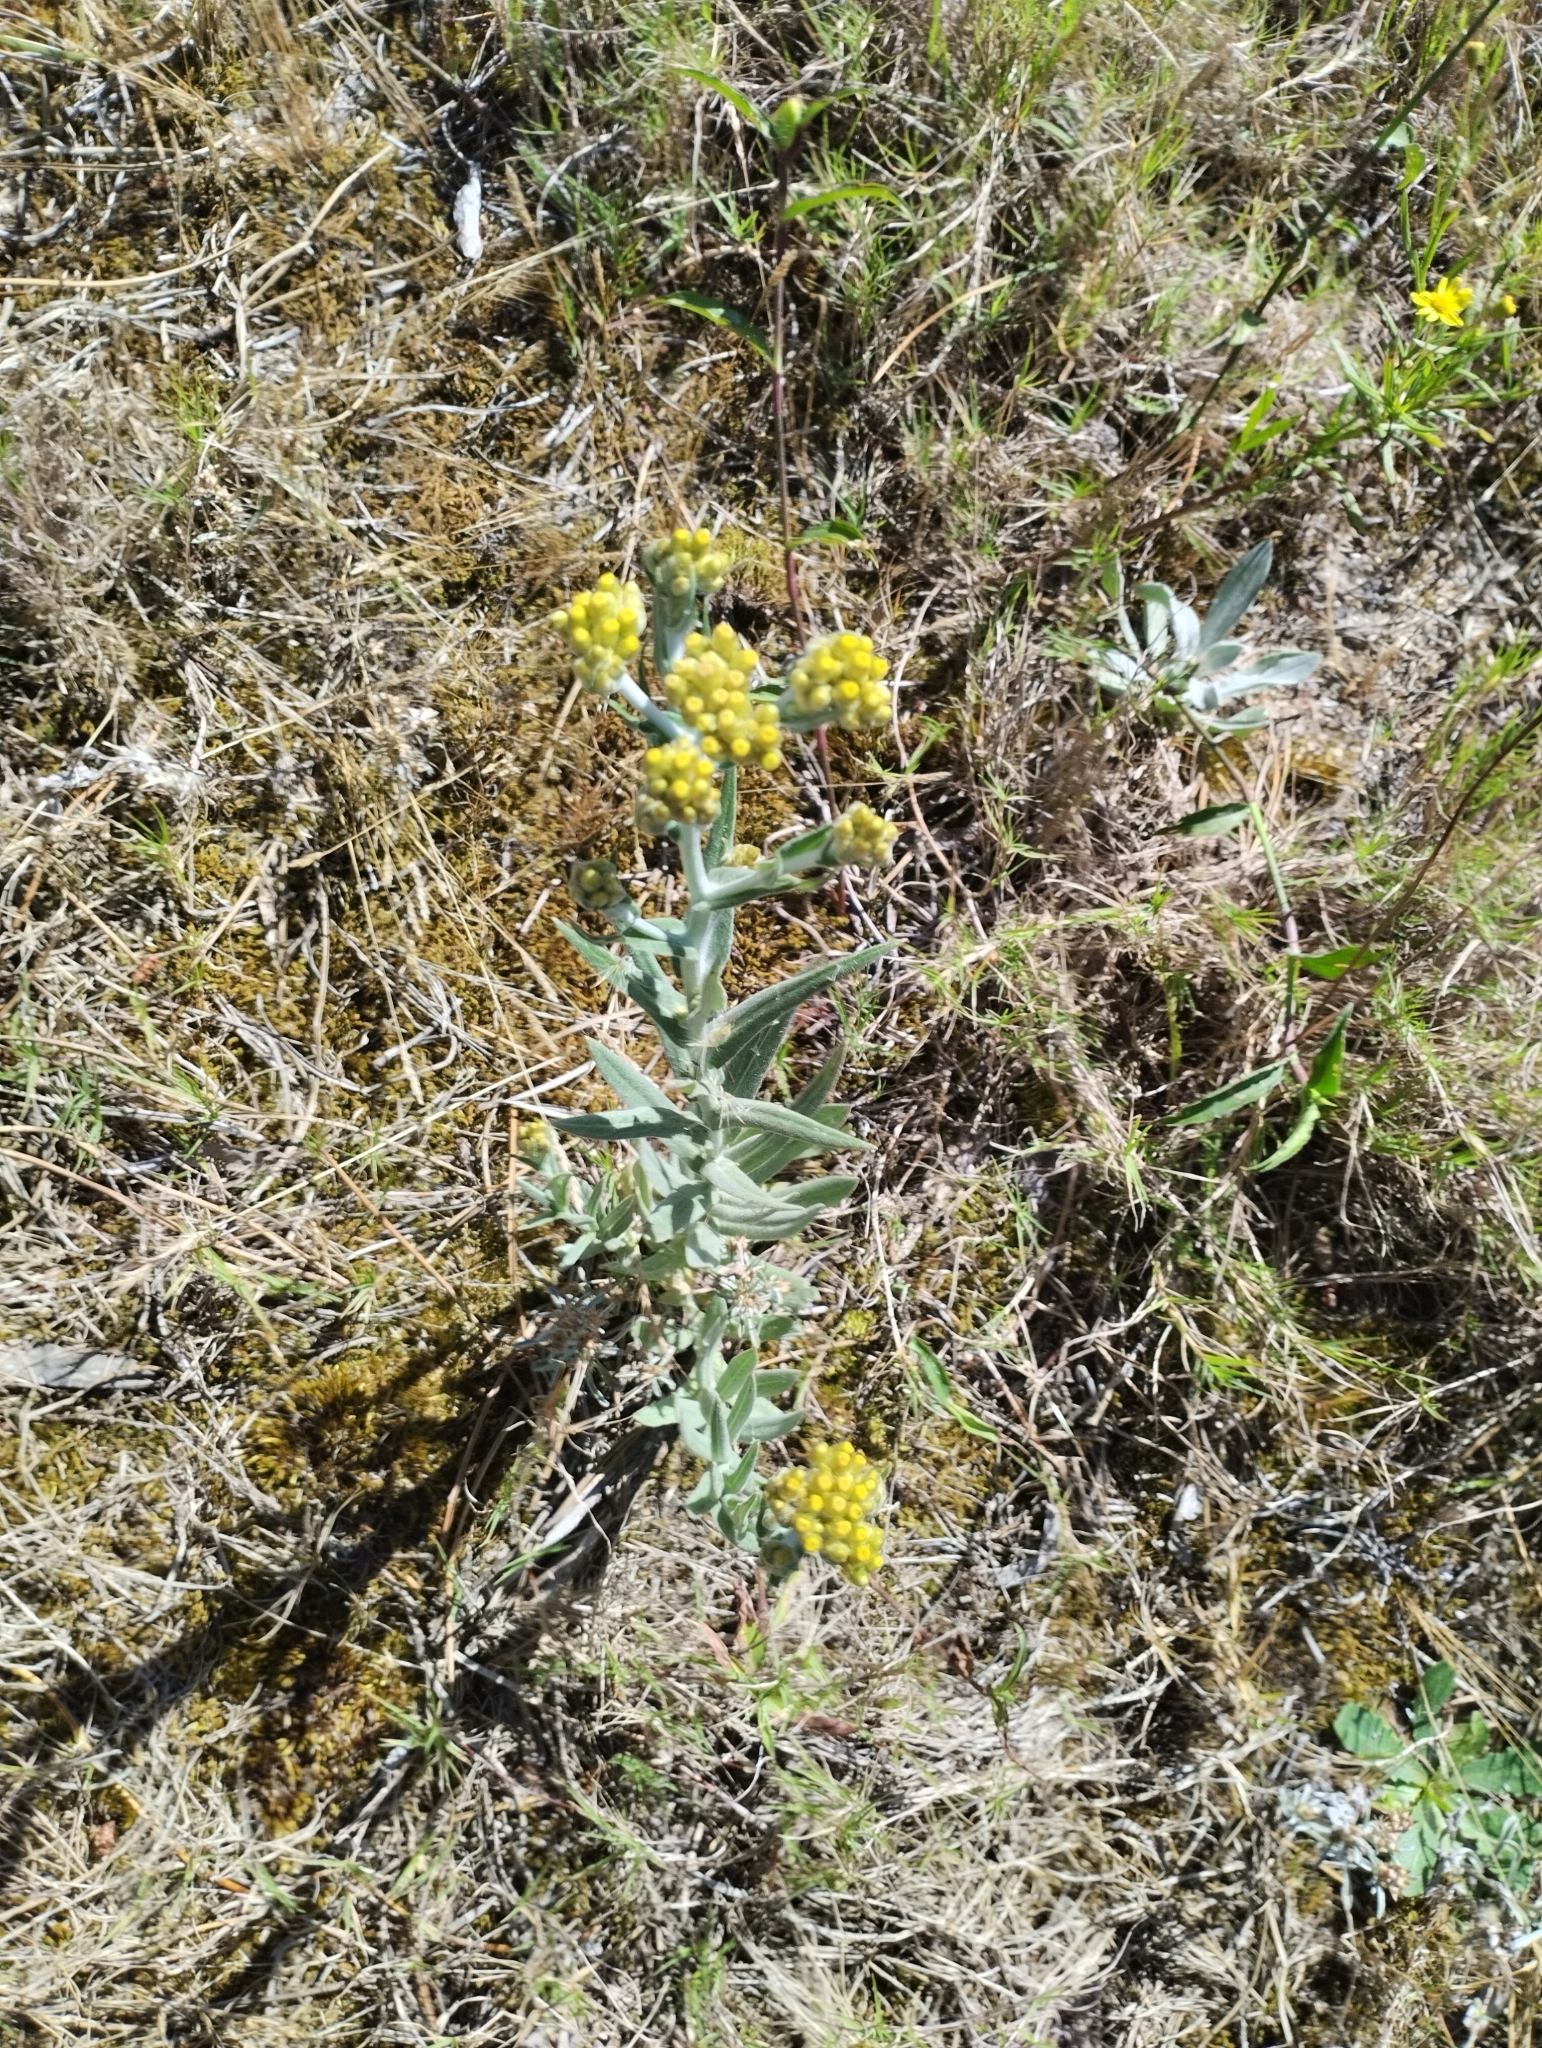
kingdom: Plantae
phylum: Tracheophyta
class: Magnoliopsida
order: Asterales
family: Asteraceae
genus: Pseudognaphalium
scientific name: Pseudognaphalium cheiranthifolium
